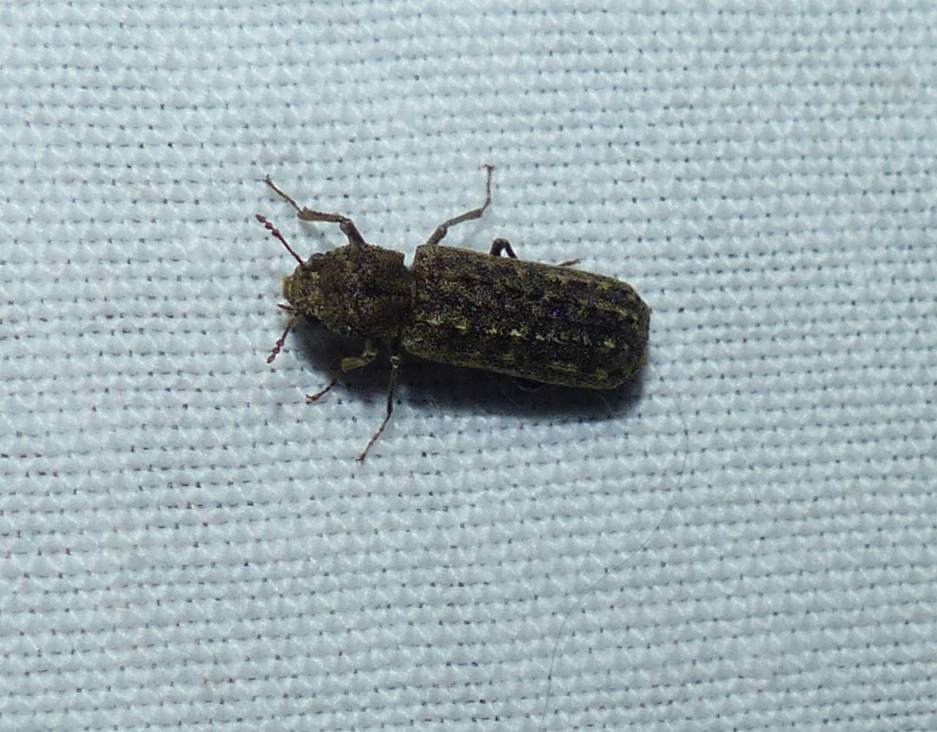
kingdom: Animalia
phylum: Arthropoda
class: Insecta
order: Coleoptera
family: Bostrichidae
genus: Lichenophanes
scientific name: Lichenophanes bicornis
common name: Two-horned powder-post beetle
